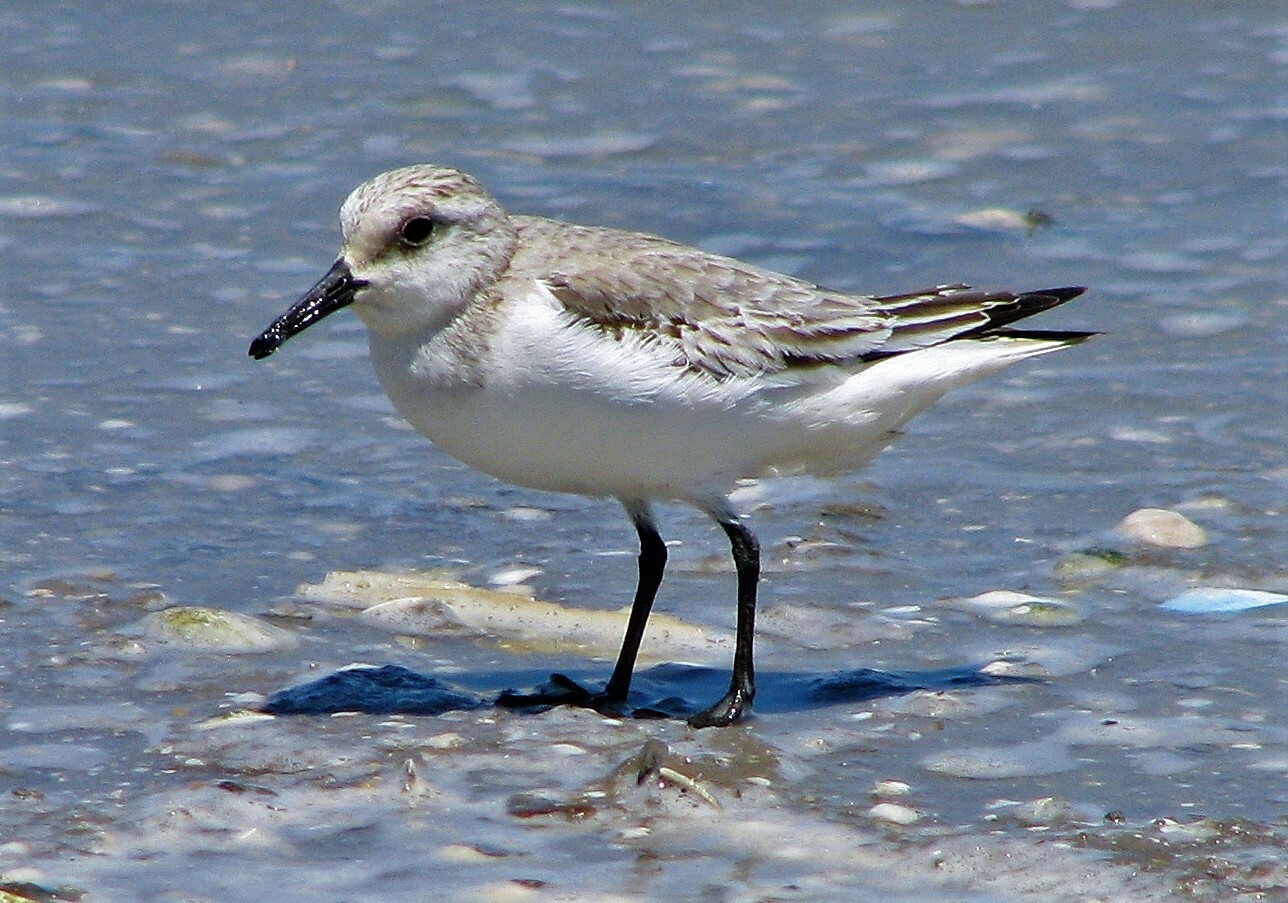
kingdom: Animalia
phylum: Chordata
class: Aves
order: Charadriiformes
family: Scolopacidae
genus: Calidris
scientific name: Calidris alba
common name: Sanderling
